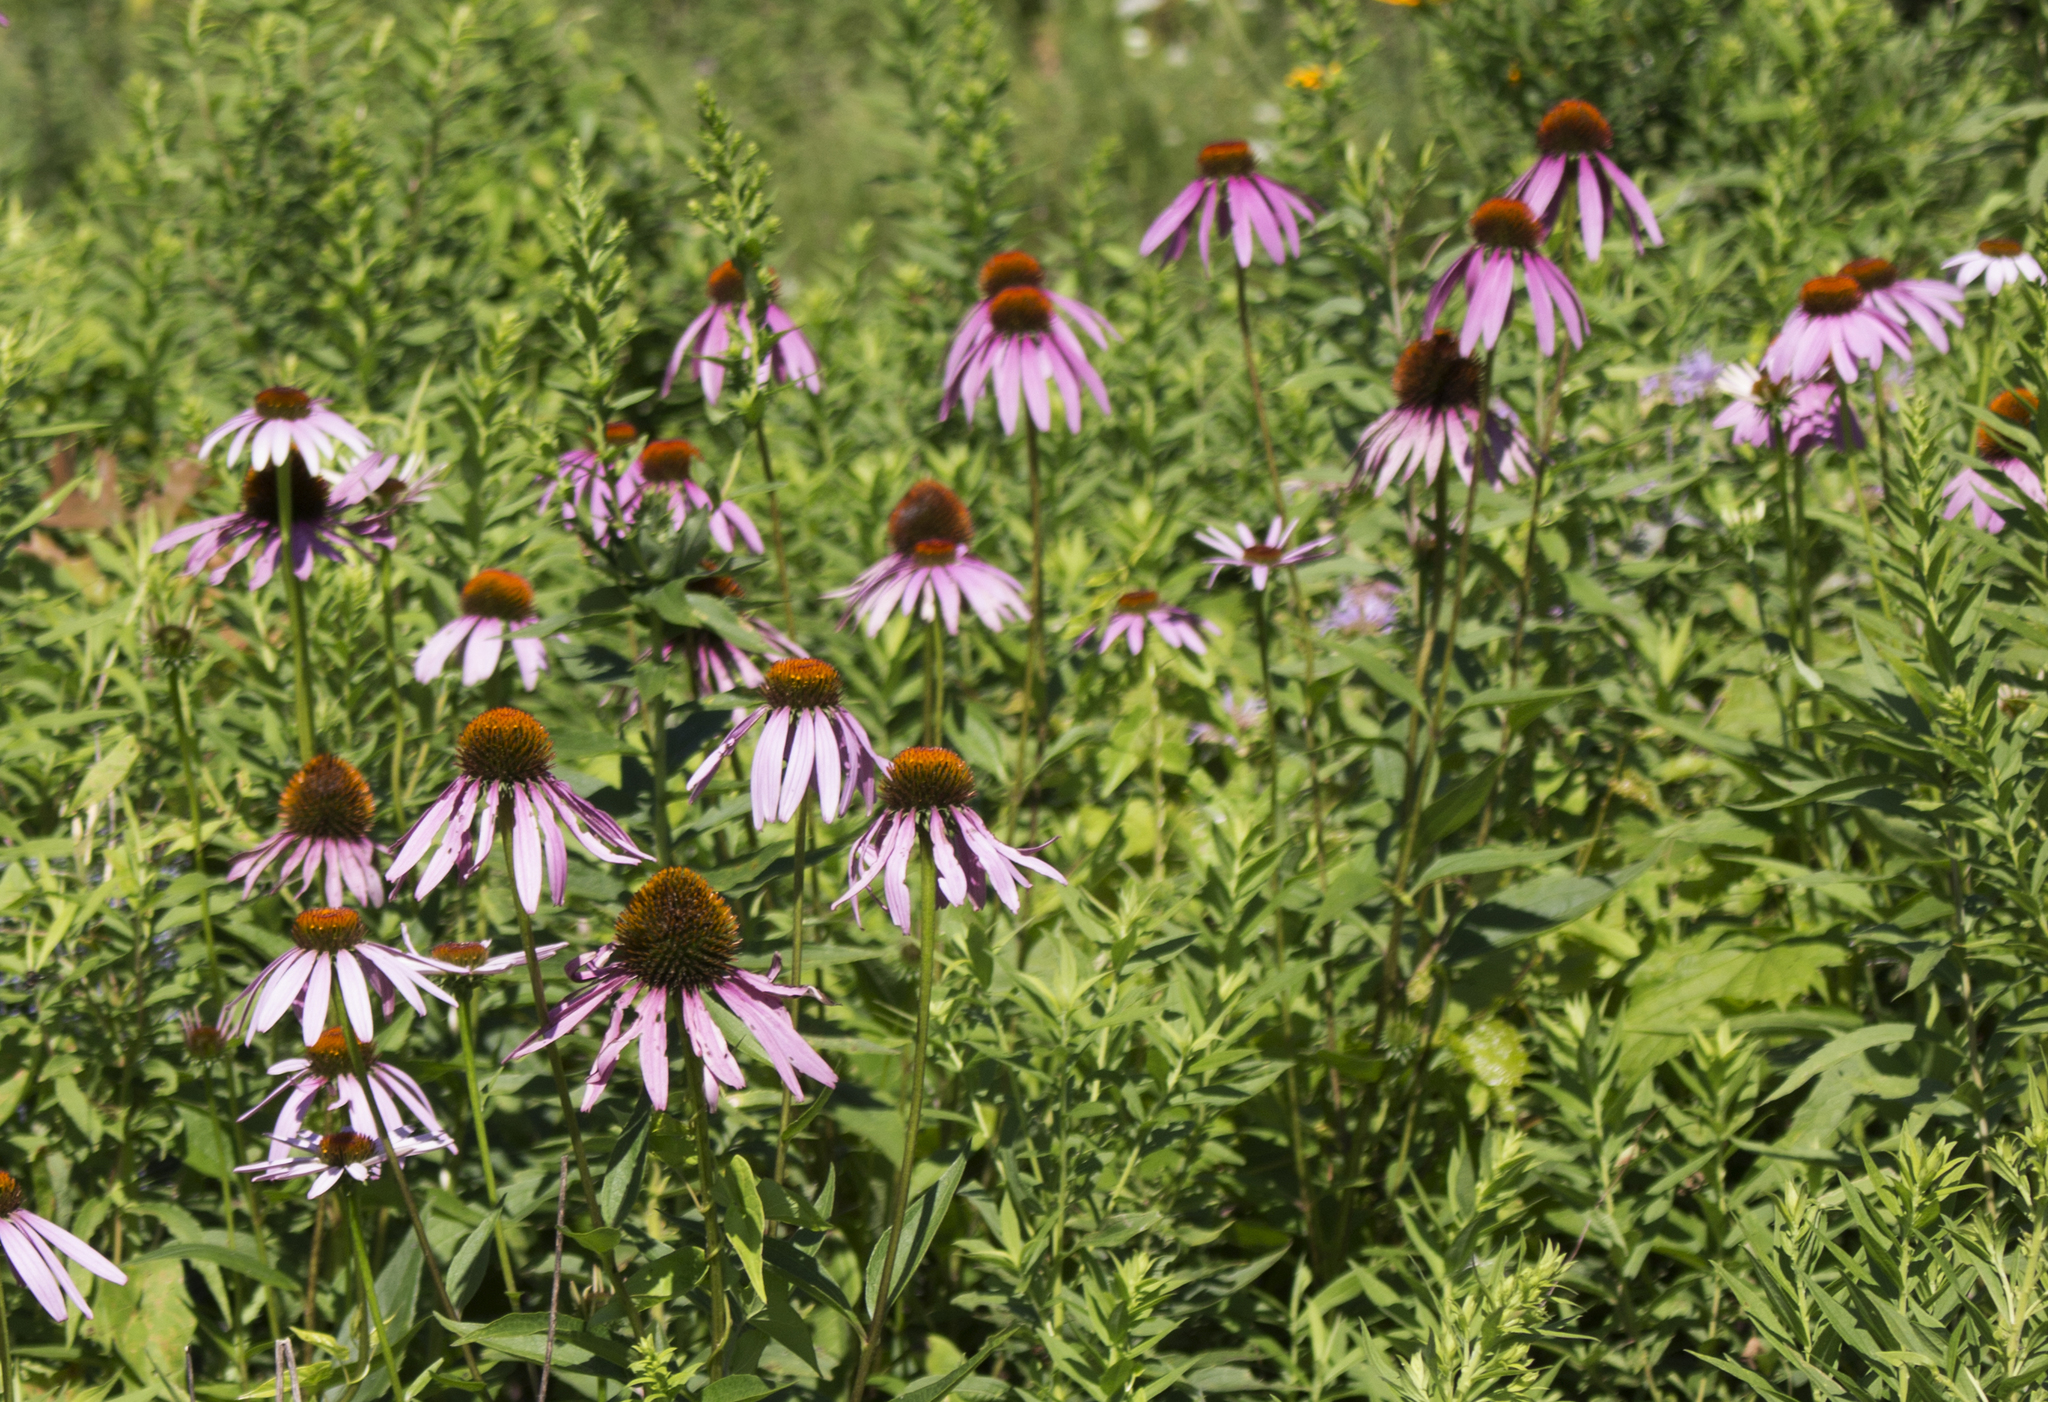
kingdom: Plantae
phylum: Tracheophyta
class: Magnoliopsida
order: Asterales
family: Asteraceae
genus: Echinacea
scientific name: Echinacea purpurea
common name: Broad-leaved purple coneflower
